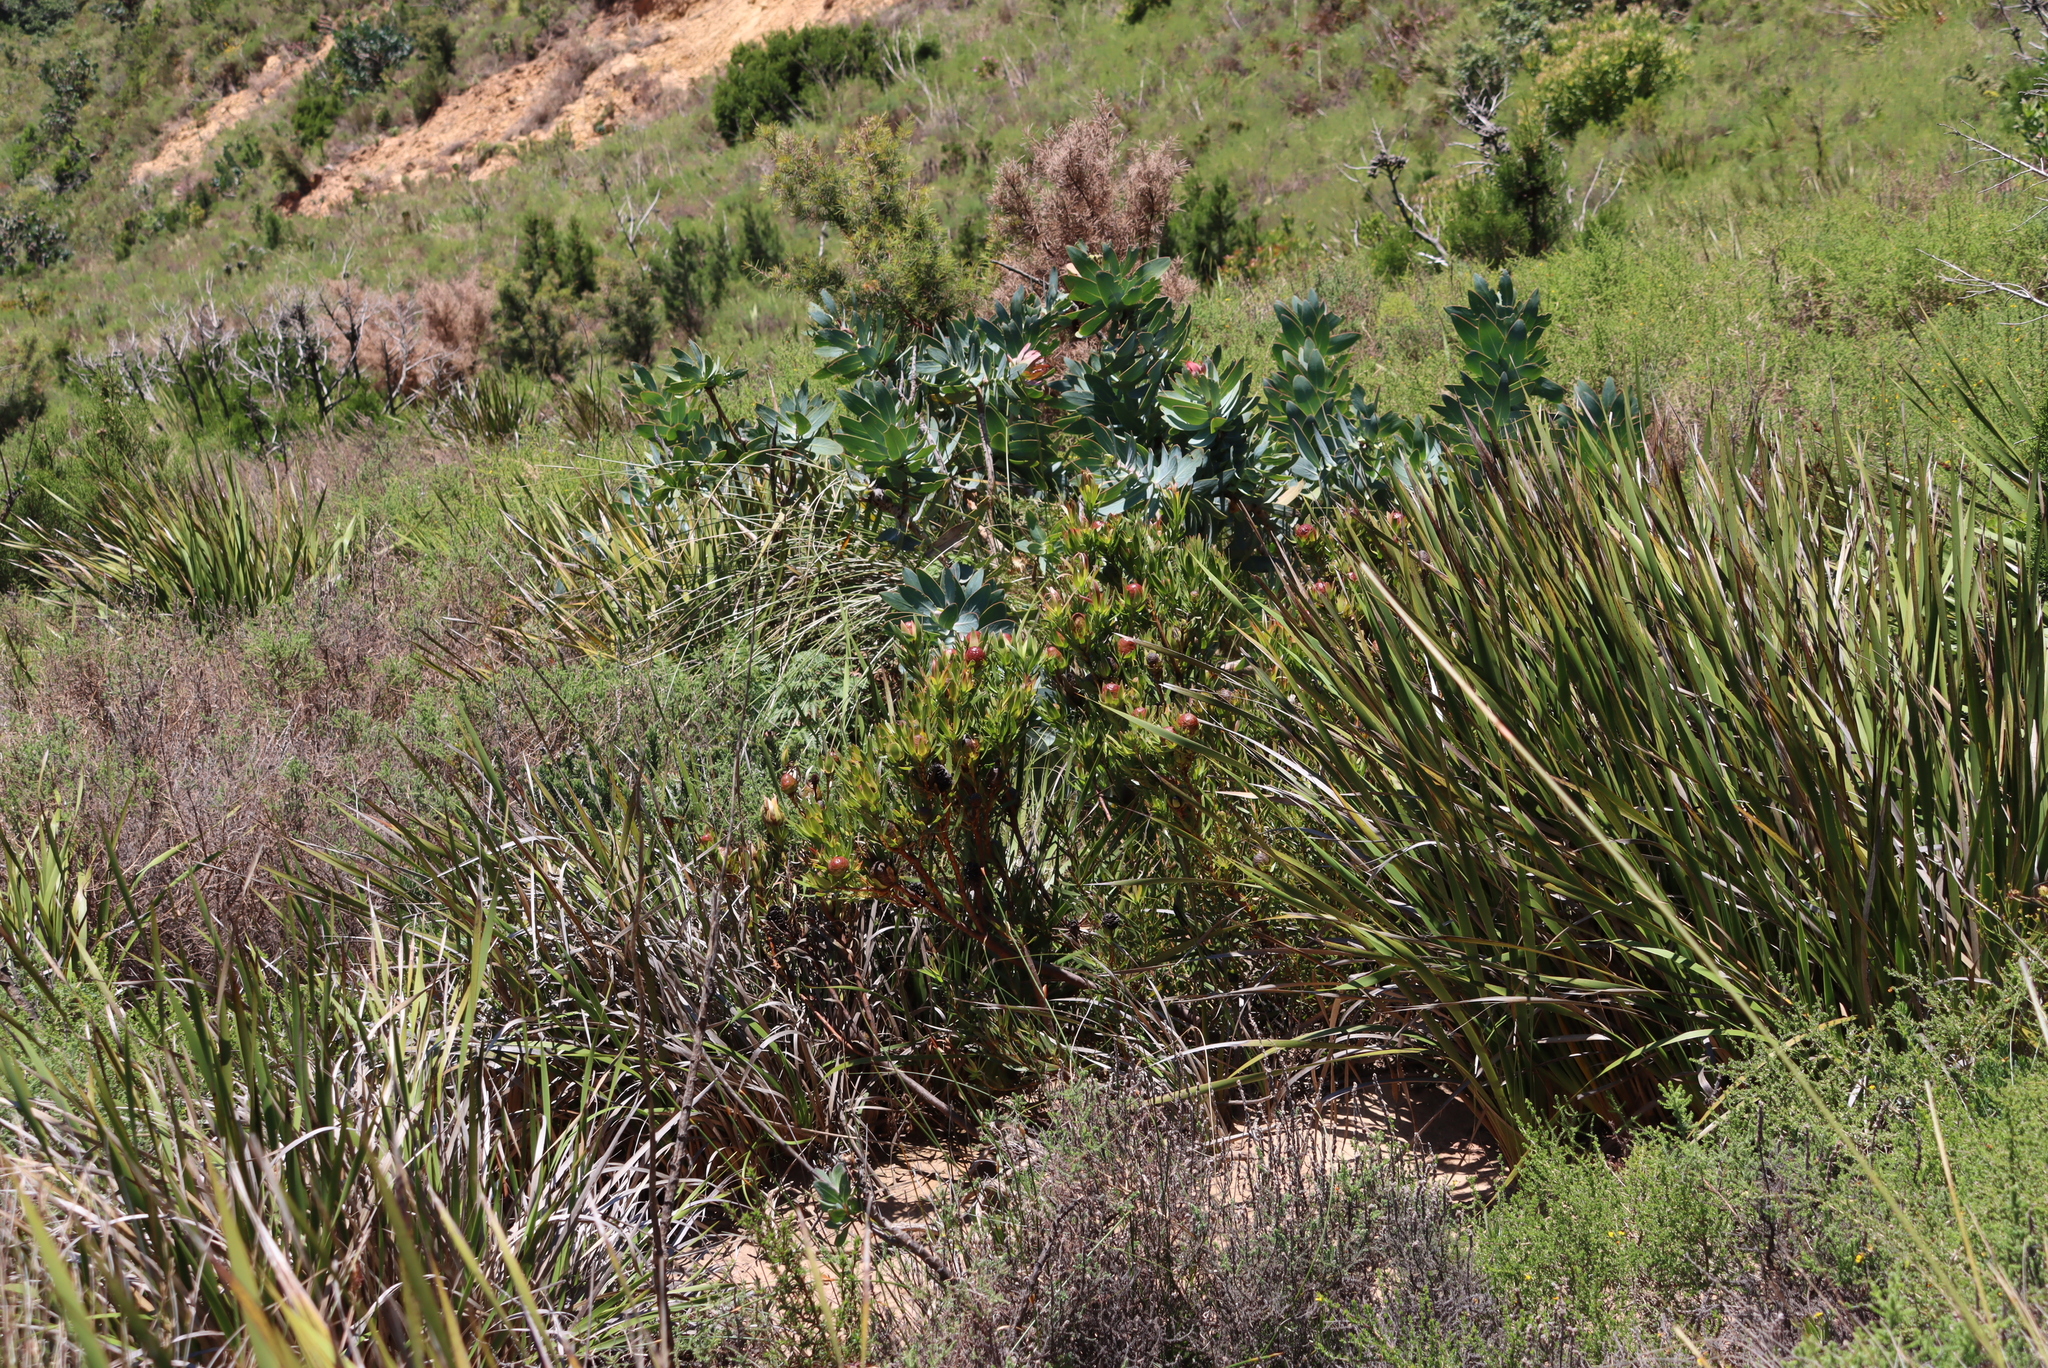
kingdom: Plantae
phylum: Tracheophyta
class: Magnoliopsida
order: Proteales
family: Proteaceae
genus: Leucadendron
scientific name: Leucadendron spissifolium
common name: Spear-leaf conebush
